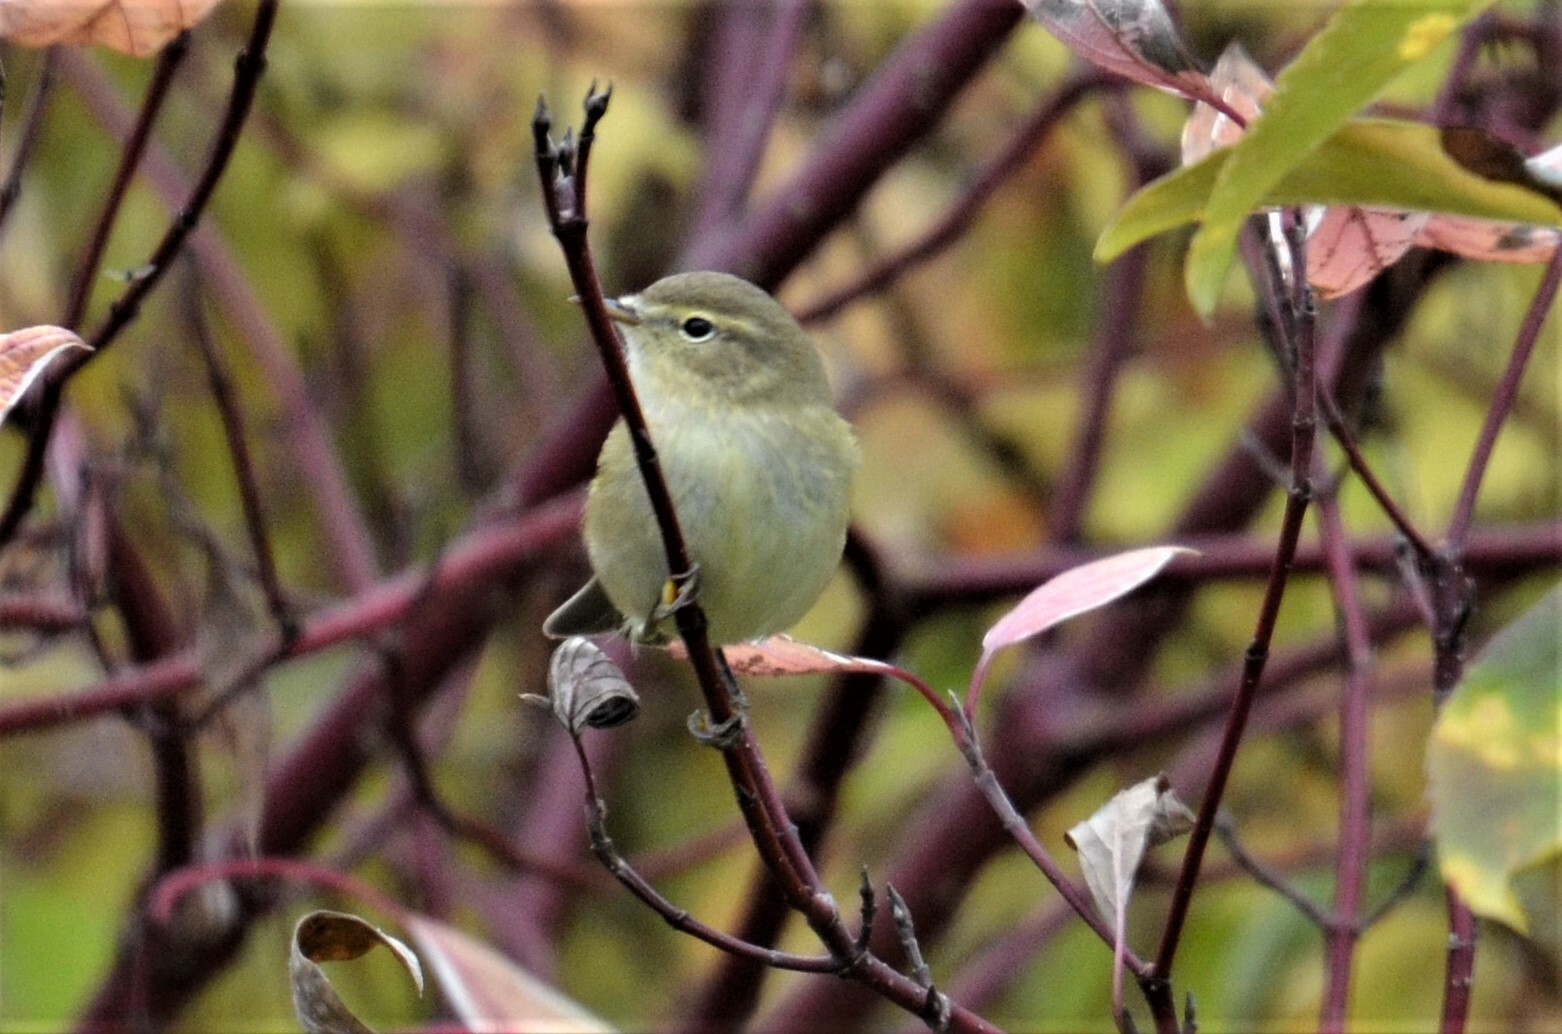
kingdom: Animalia
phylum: Chordata
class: Aves
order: Passeriformes
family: Phylloscopidae
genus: Phylloscopus
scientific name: Phylloscopus collybita
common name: Common chiffchaff
